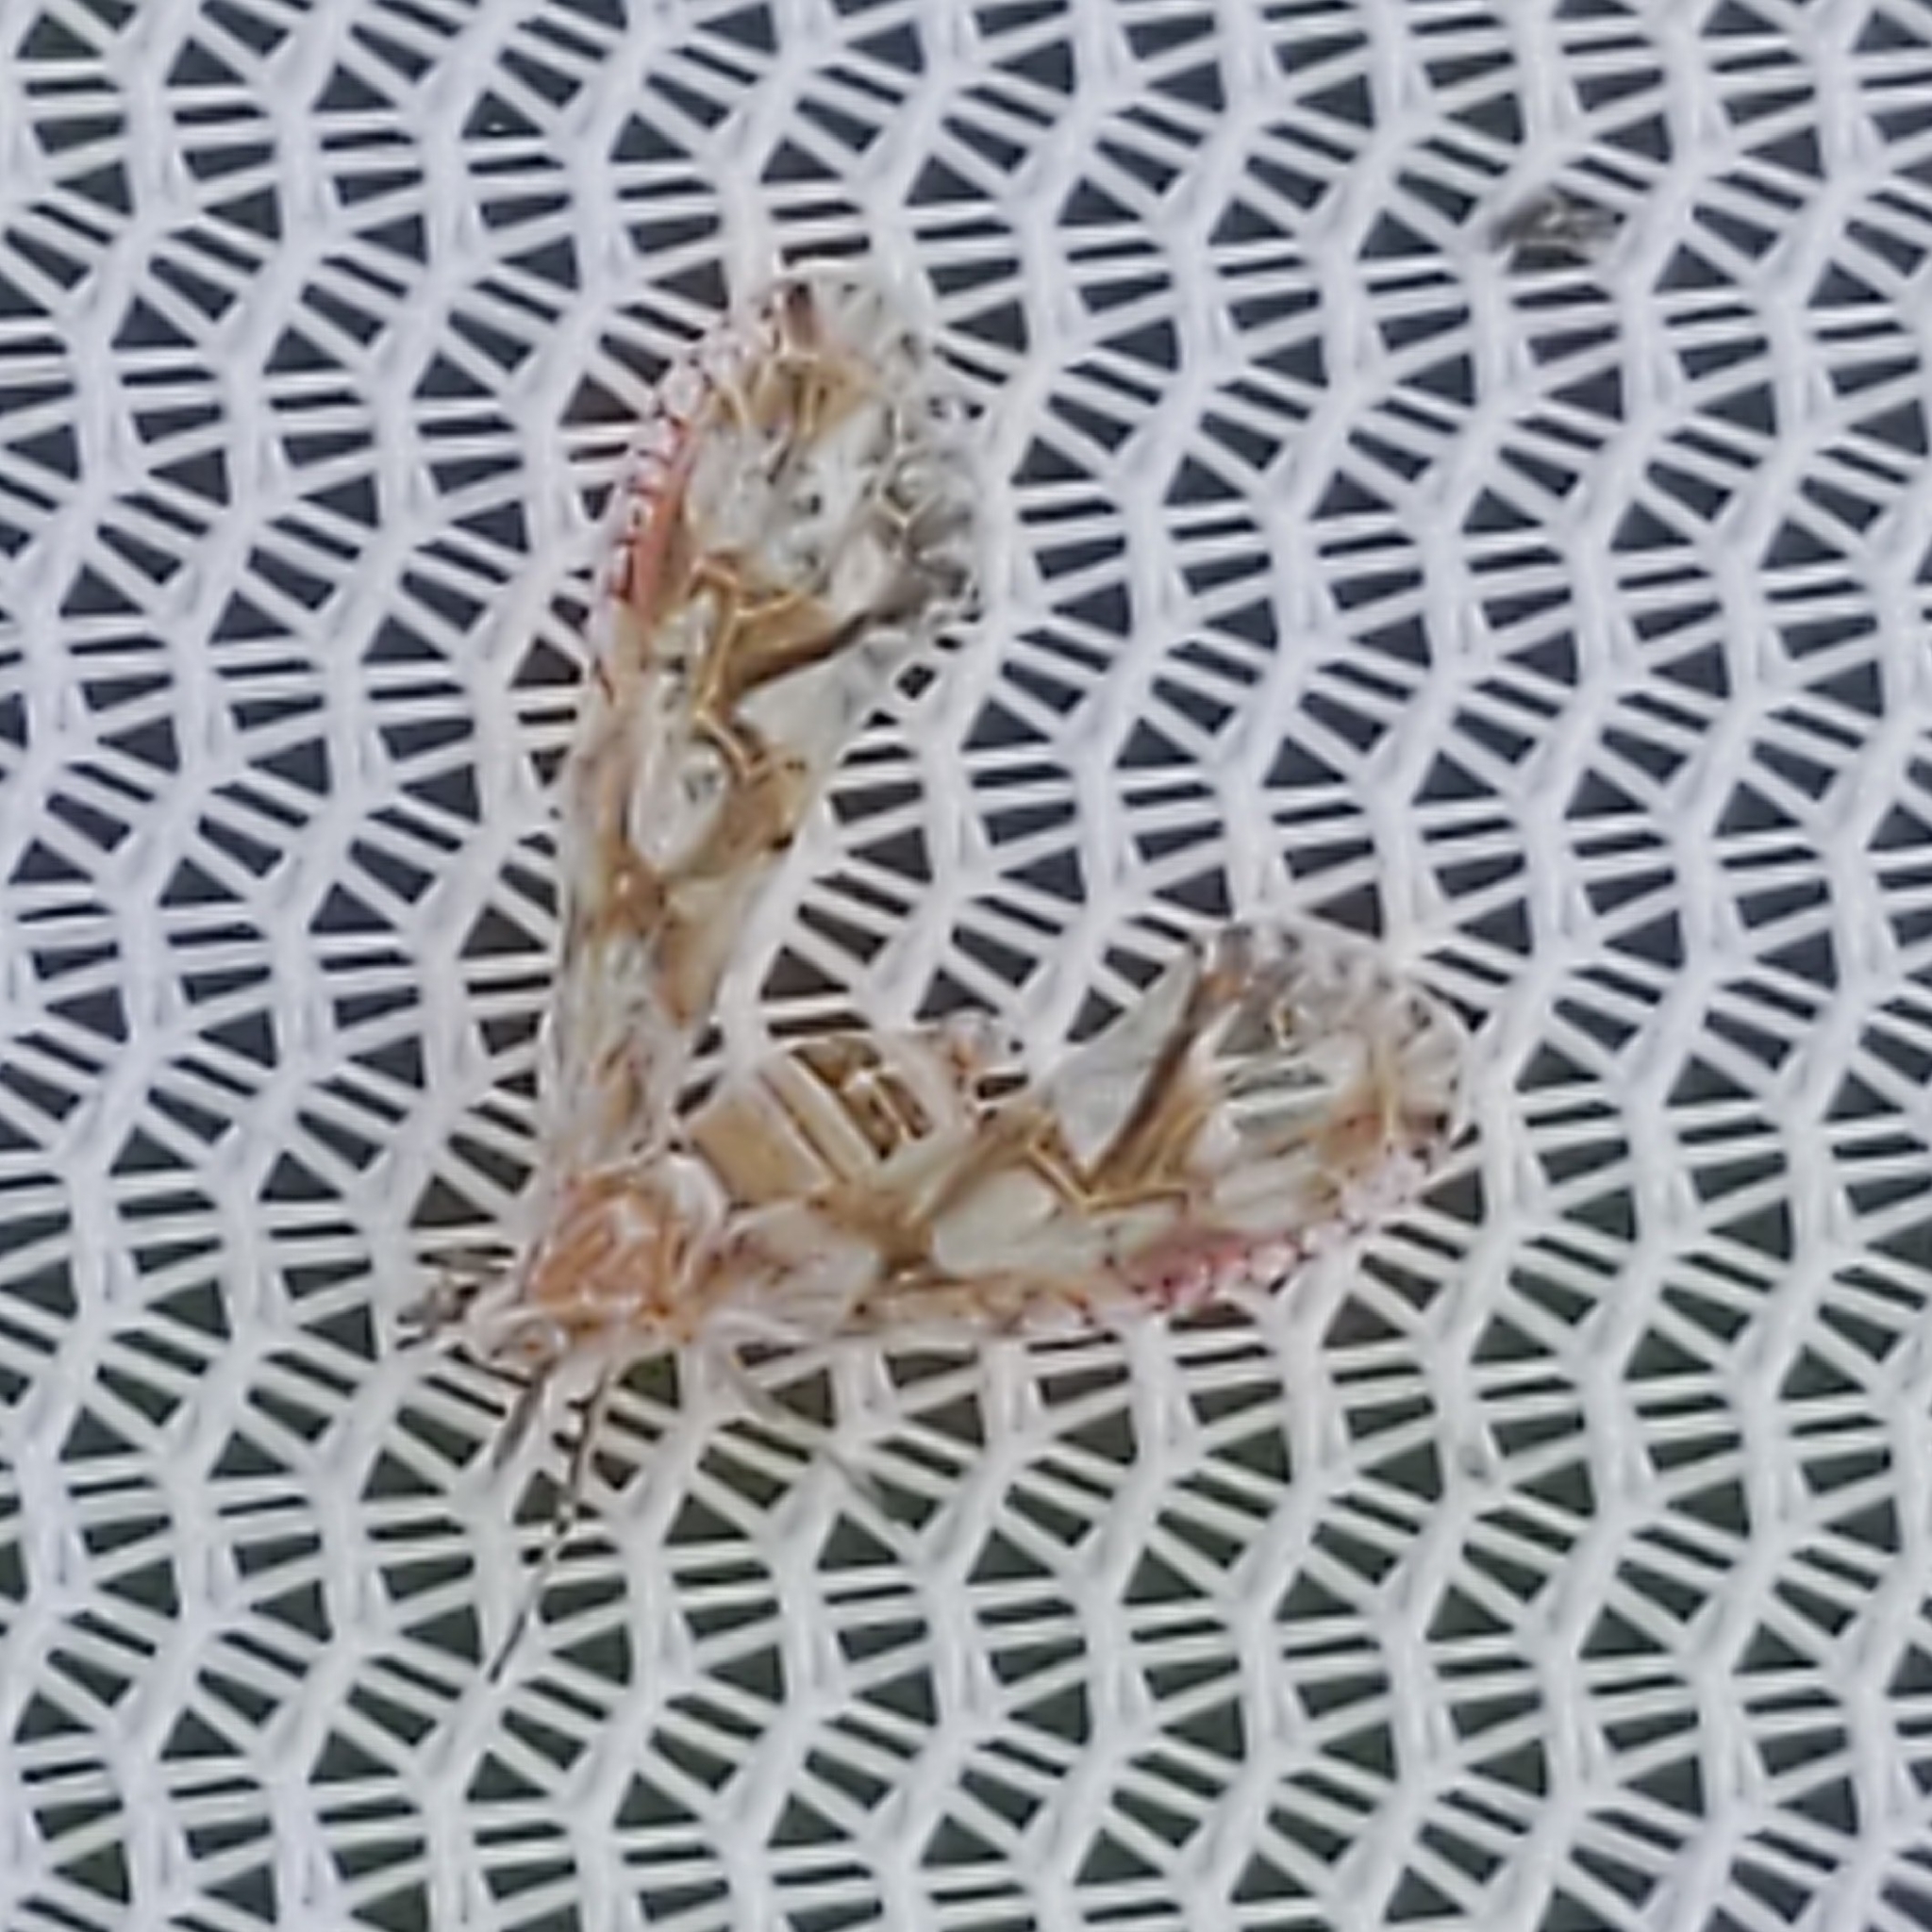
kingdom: Animalia
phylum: Arthropoda
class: Insecta
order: Hemiptera
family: Derbidae
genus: Anotia
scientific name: Anotia kirkaldyi
